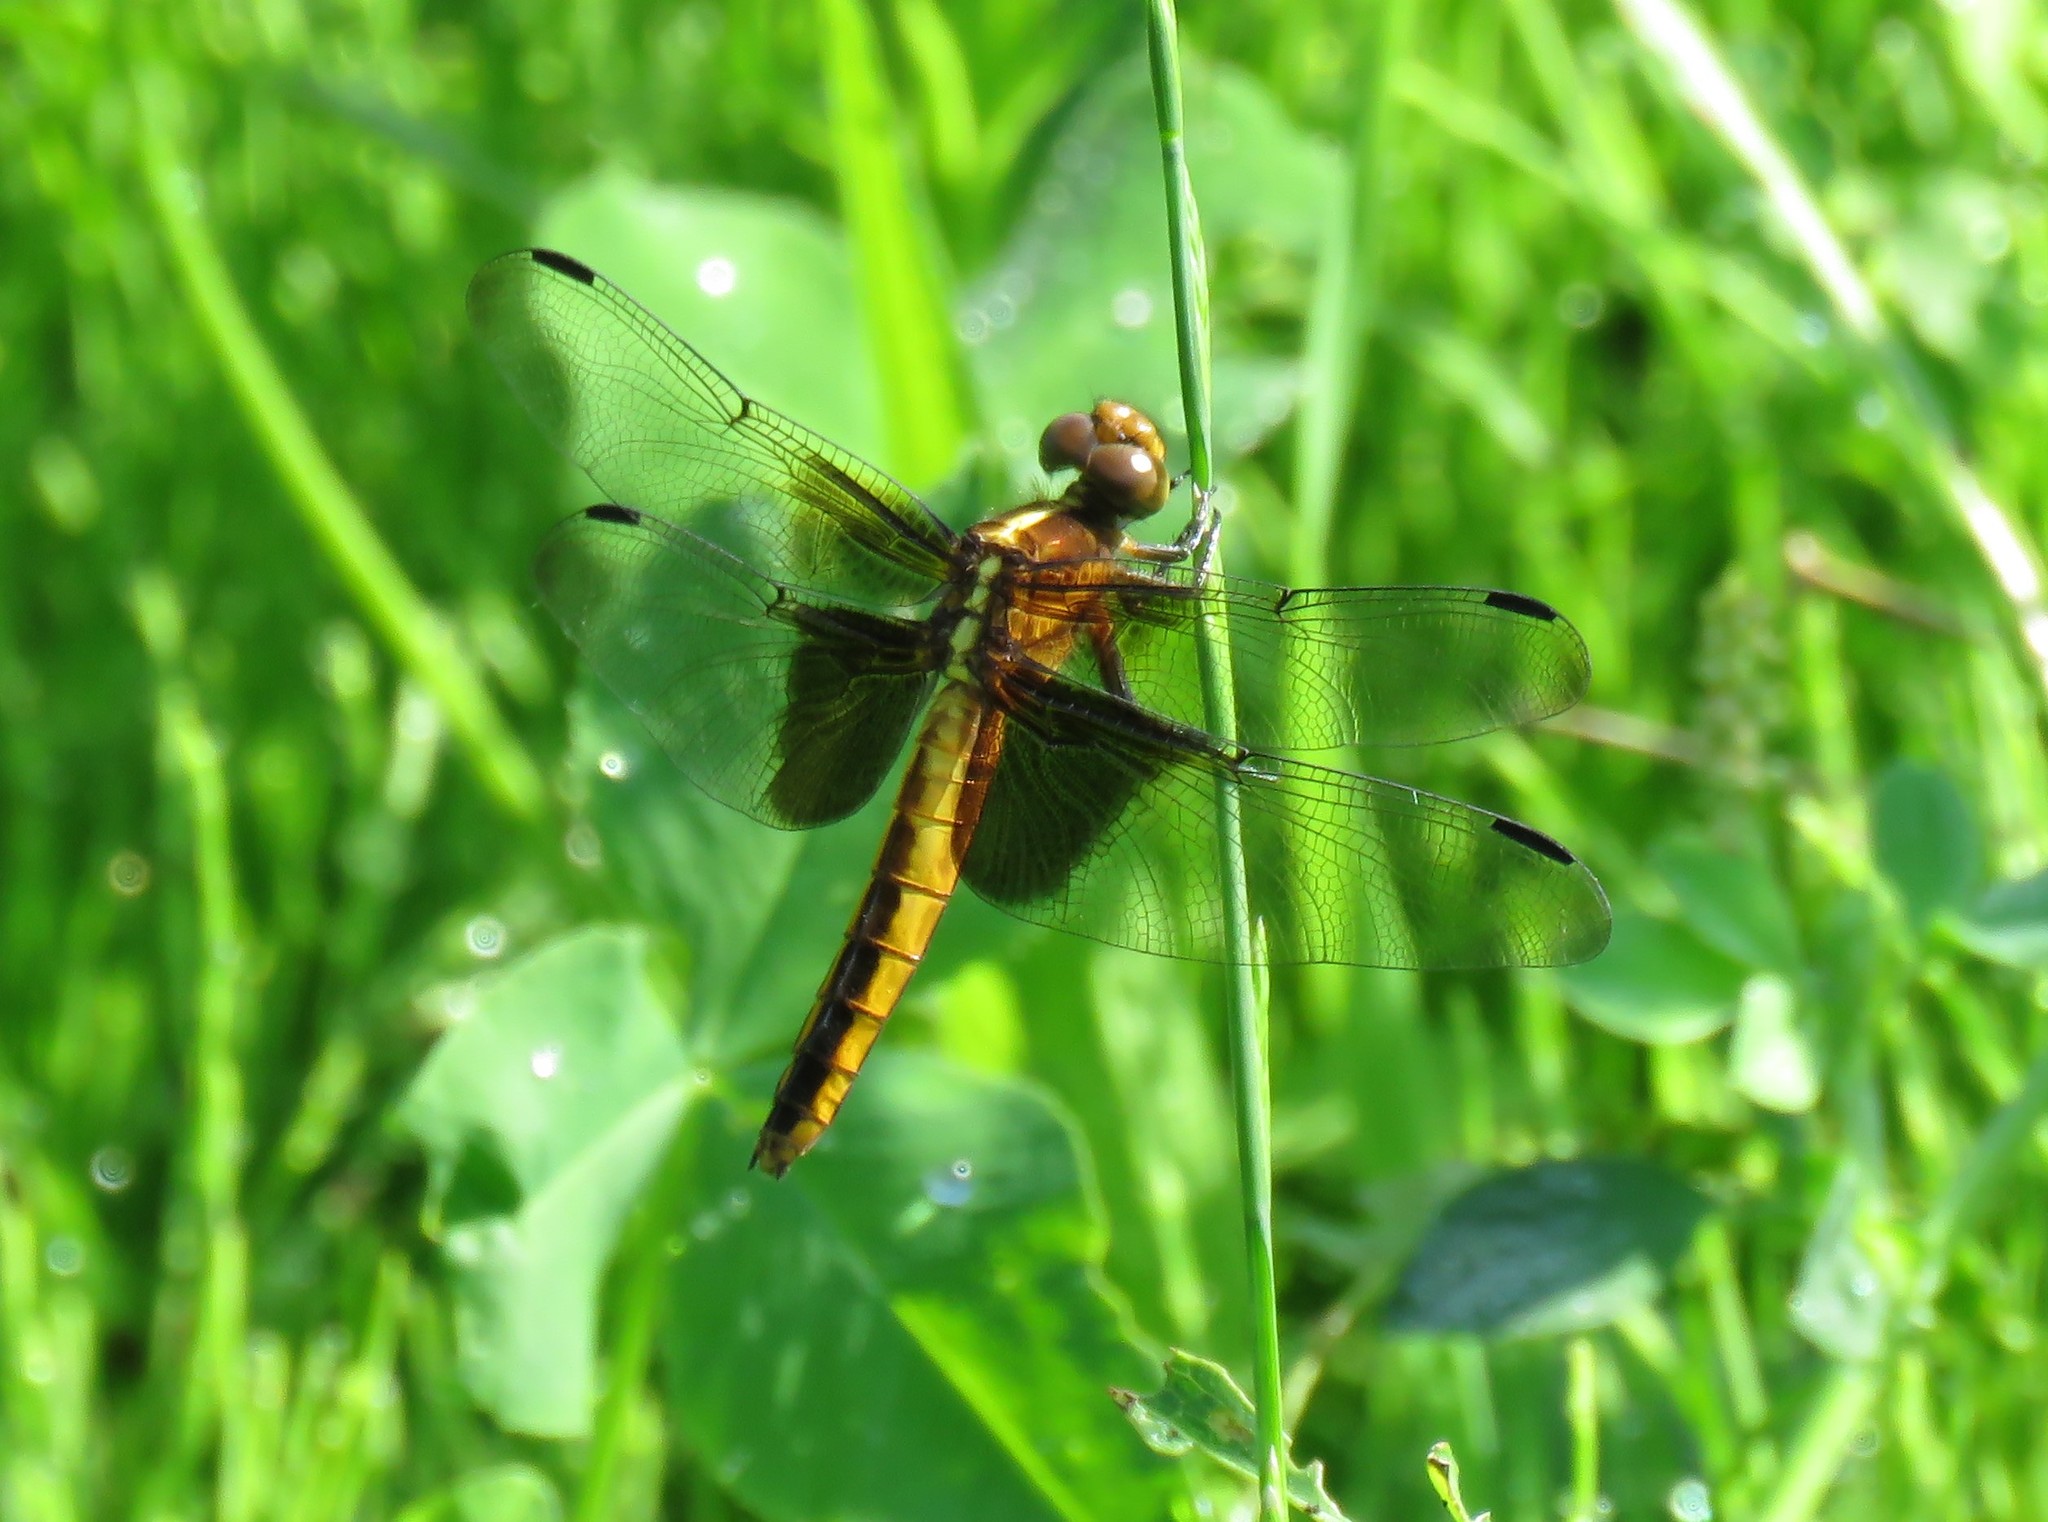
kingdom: Animalia
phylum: Arthropoda
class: Insecta
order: Odonata
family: Libellulidae
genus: Libellula
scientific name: Libellula luctuosa
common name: Widow skimmer
